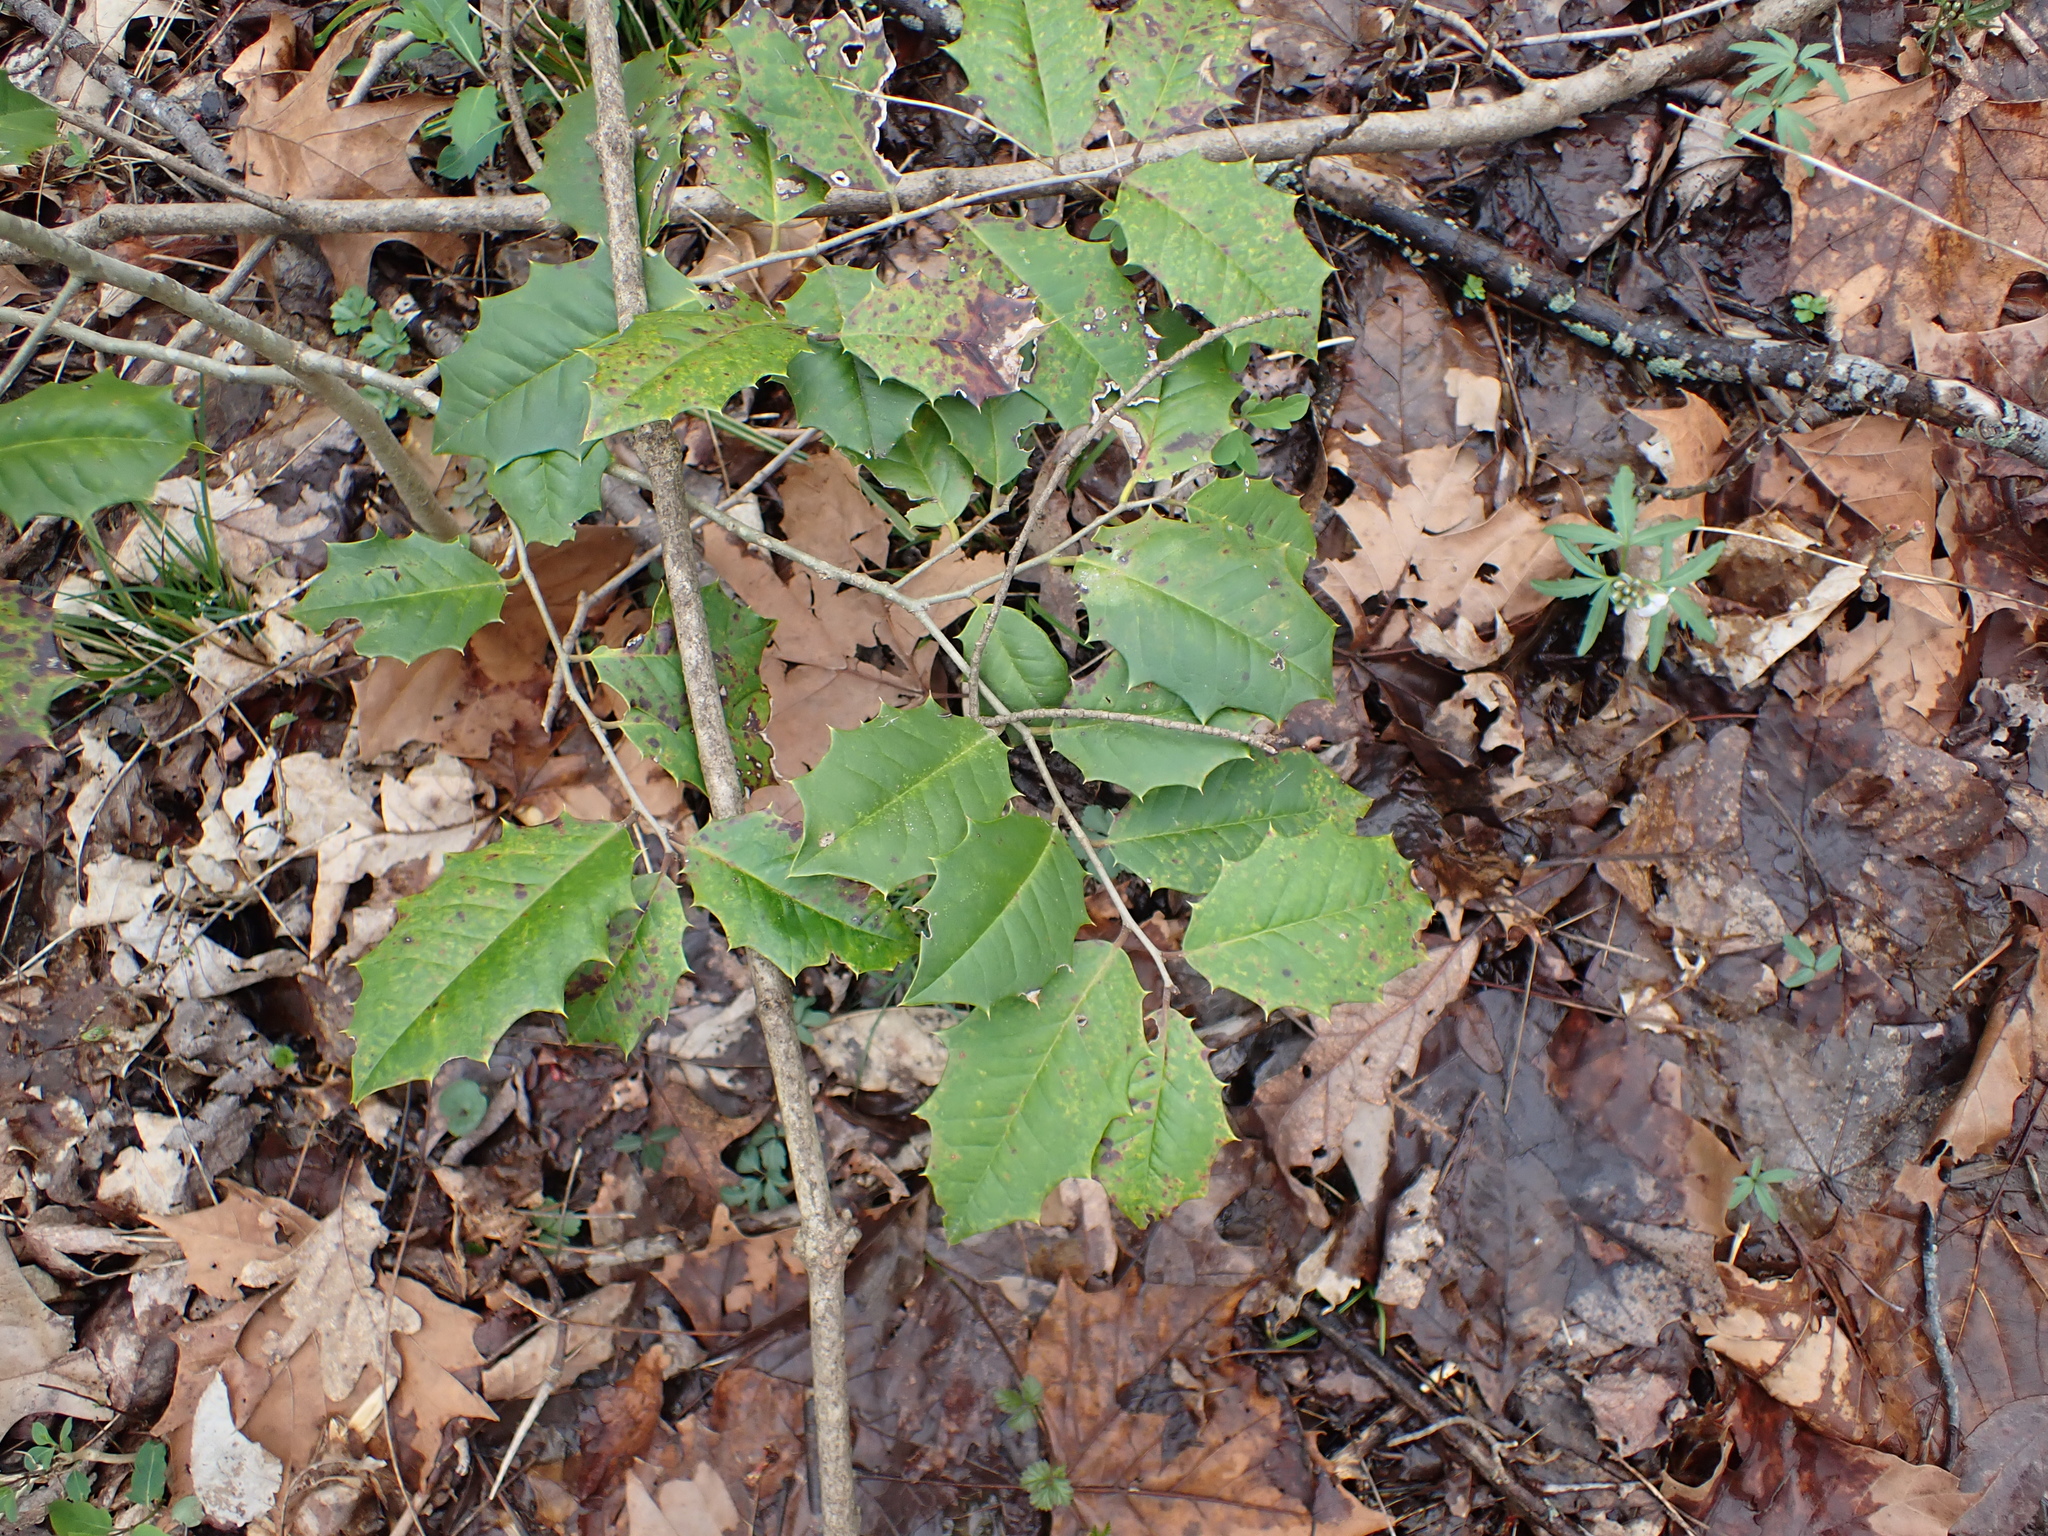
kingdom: Plantae
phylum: Tracheophyta
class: Magnoliopsida
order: Aquifoliales
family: Aquifoliaceae
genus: Ilex
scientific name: Ilex opaca
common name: American holly
